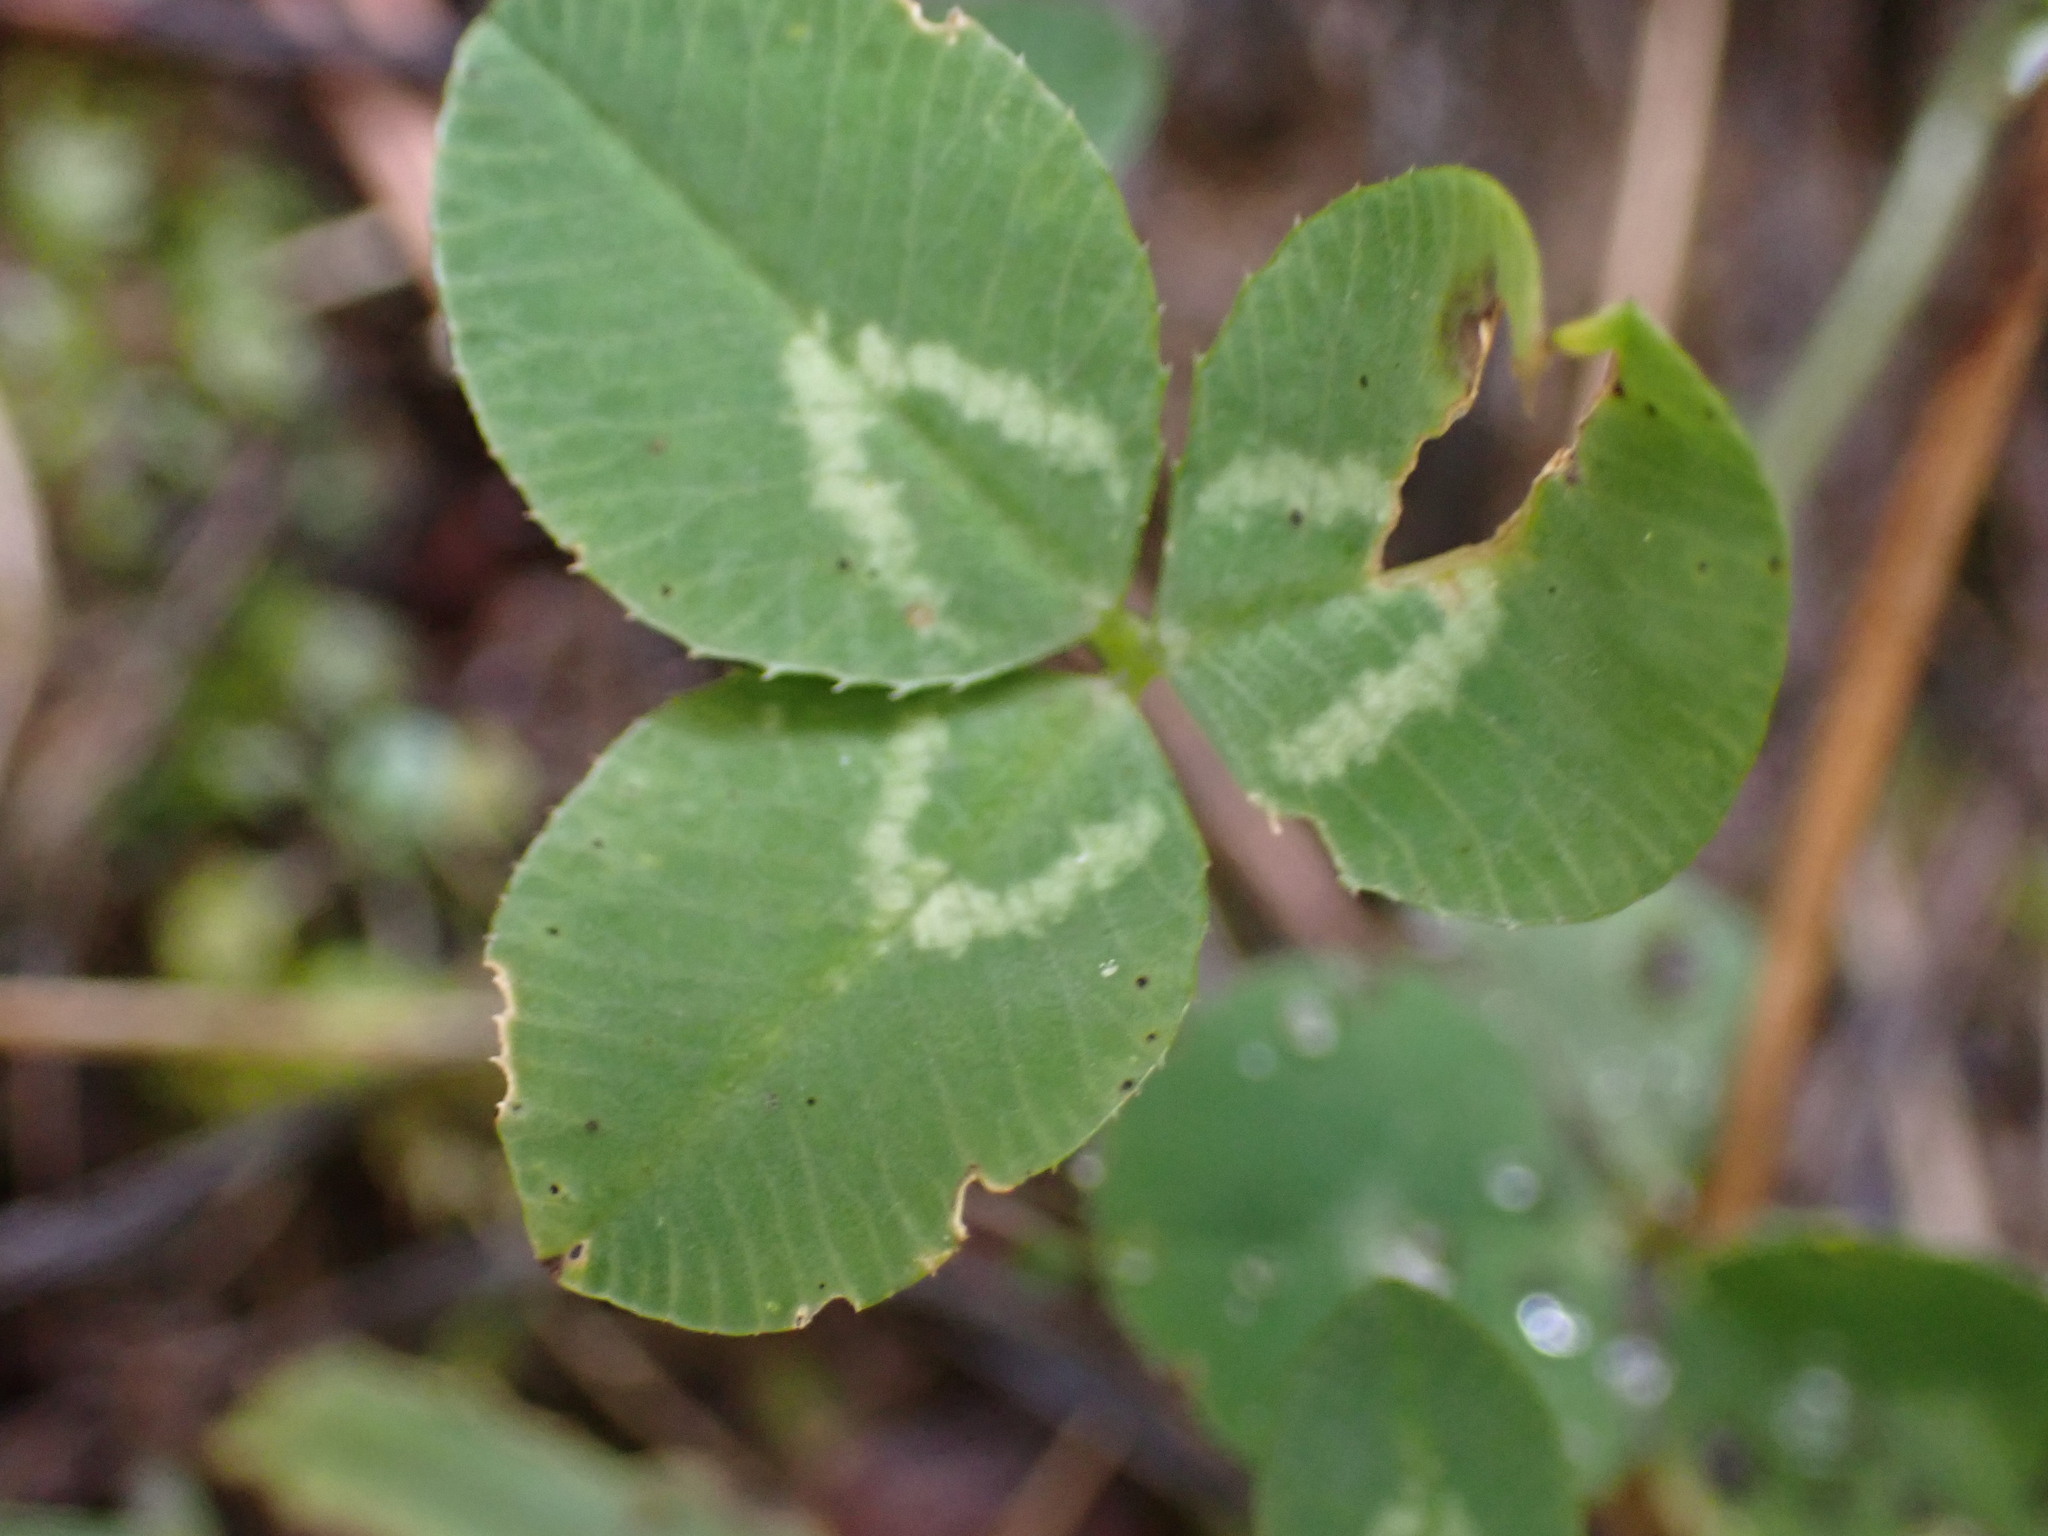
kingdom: Plantae
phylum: Tracheophyta
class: Magnoliopsida
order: Fabales
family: Fabaceae
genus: Trifolium
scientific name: Trifolium repens
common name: White clover
